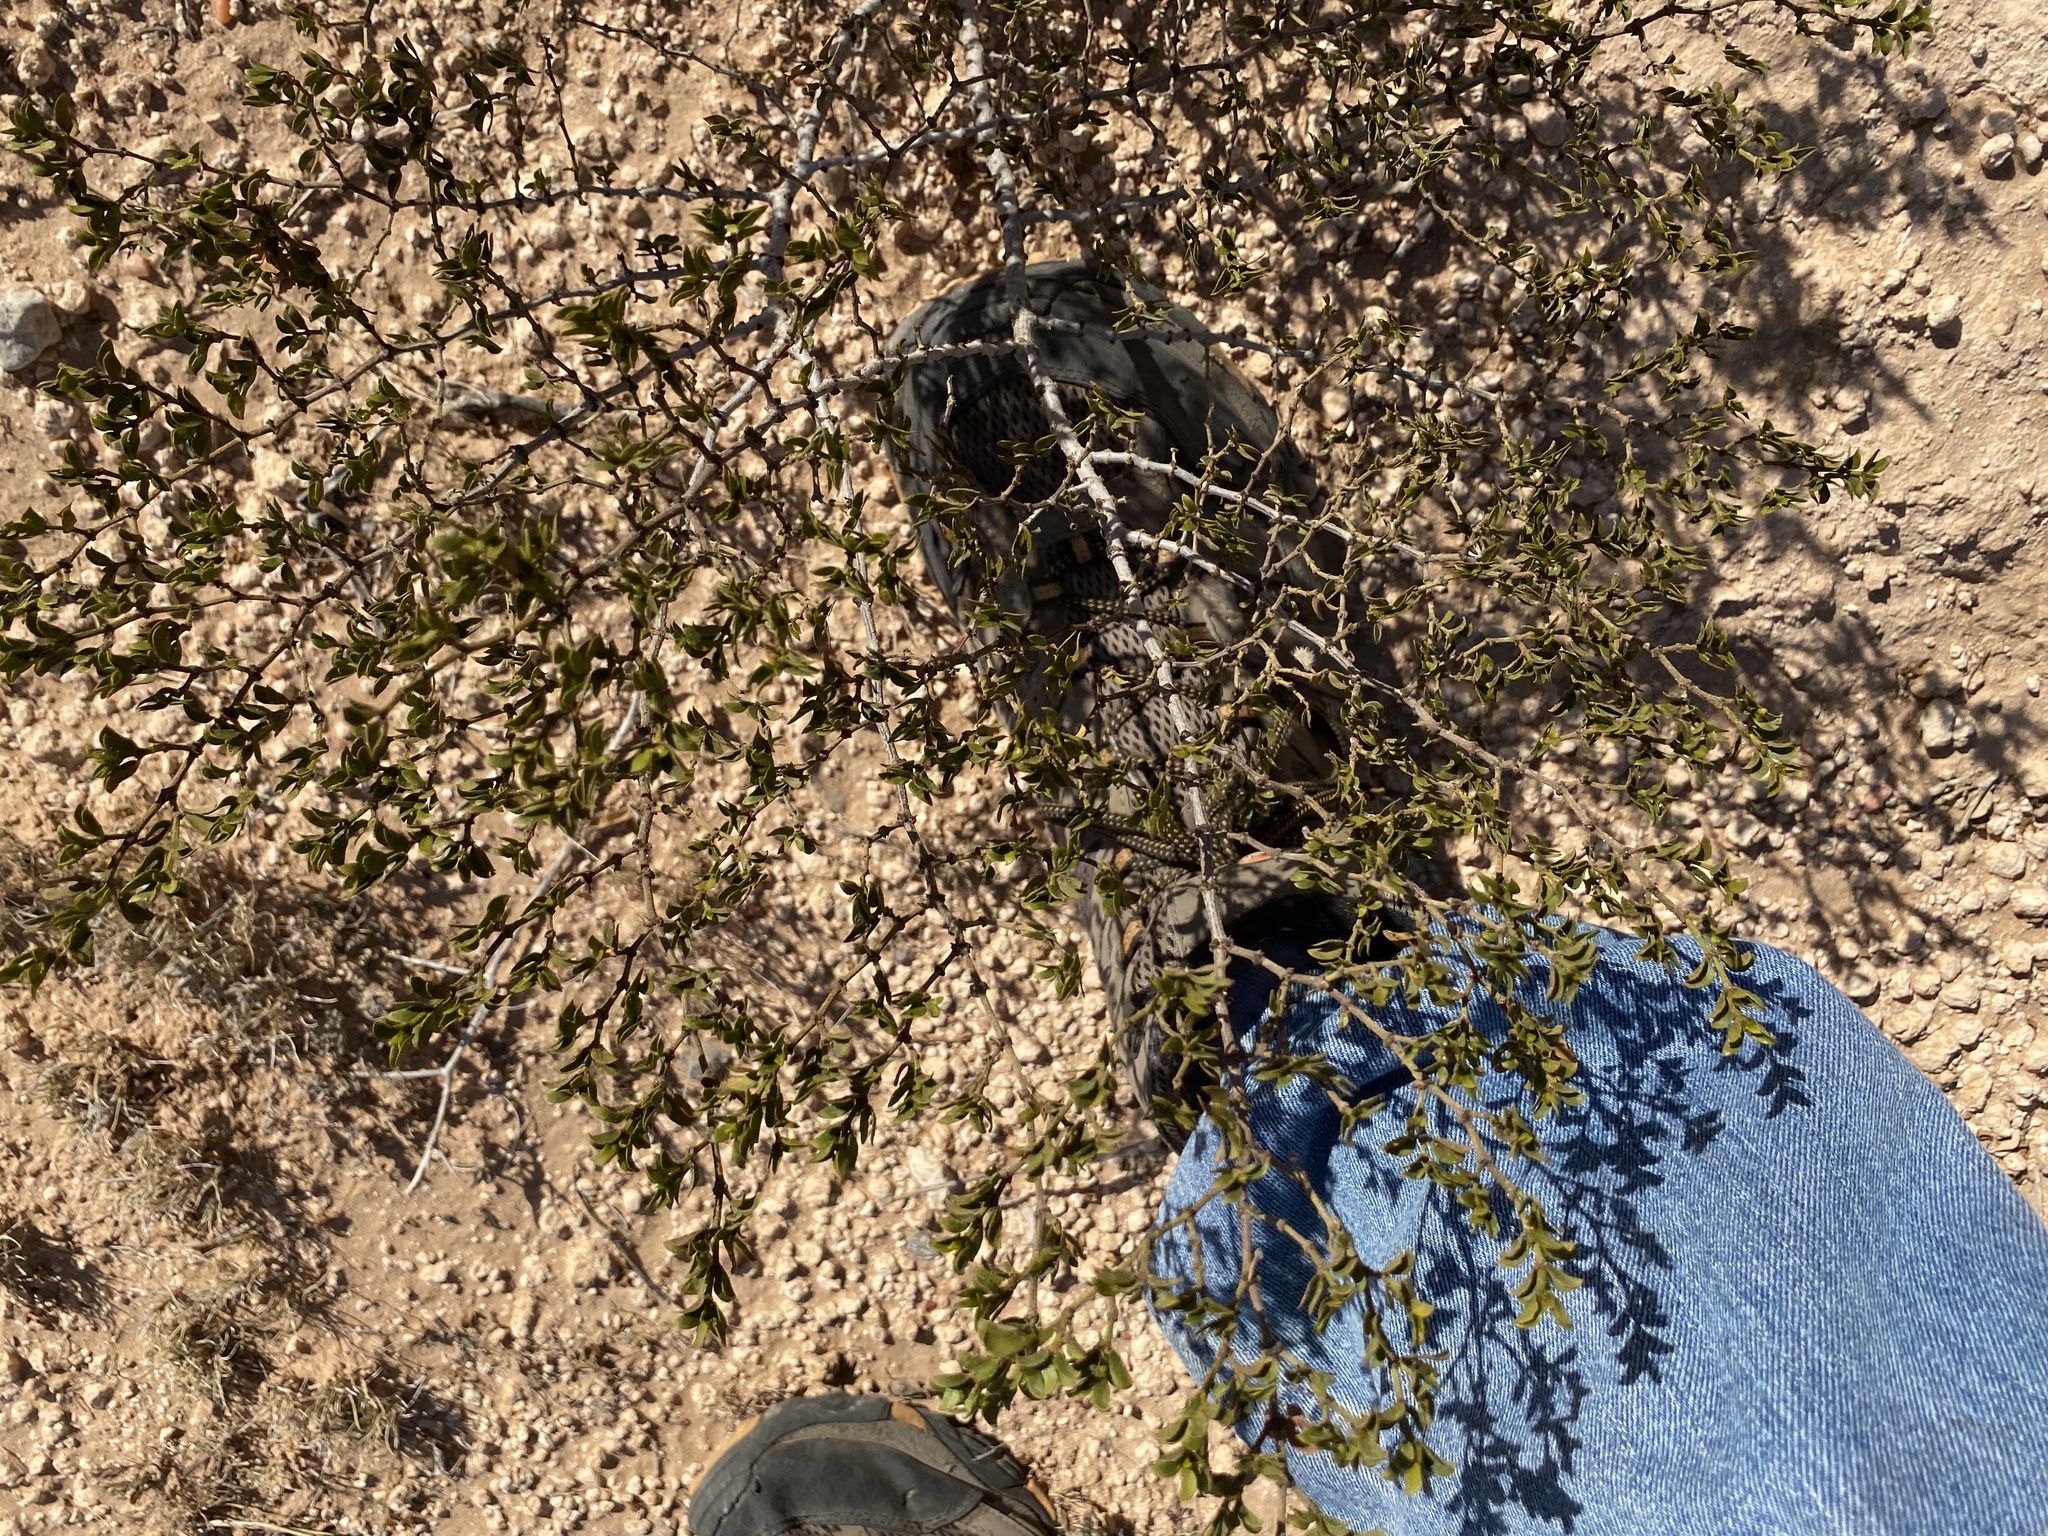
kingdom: Plantae
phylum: Tracheophyta
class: Magnoliopsida
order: Zygophyllales
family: Zygophyllaceae
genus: Larrea
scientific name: Larrea tridentata
